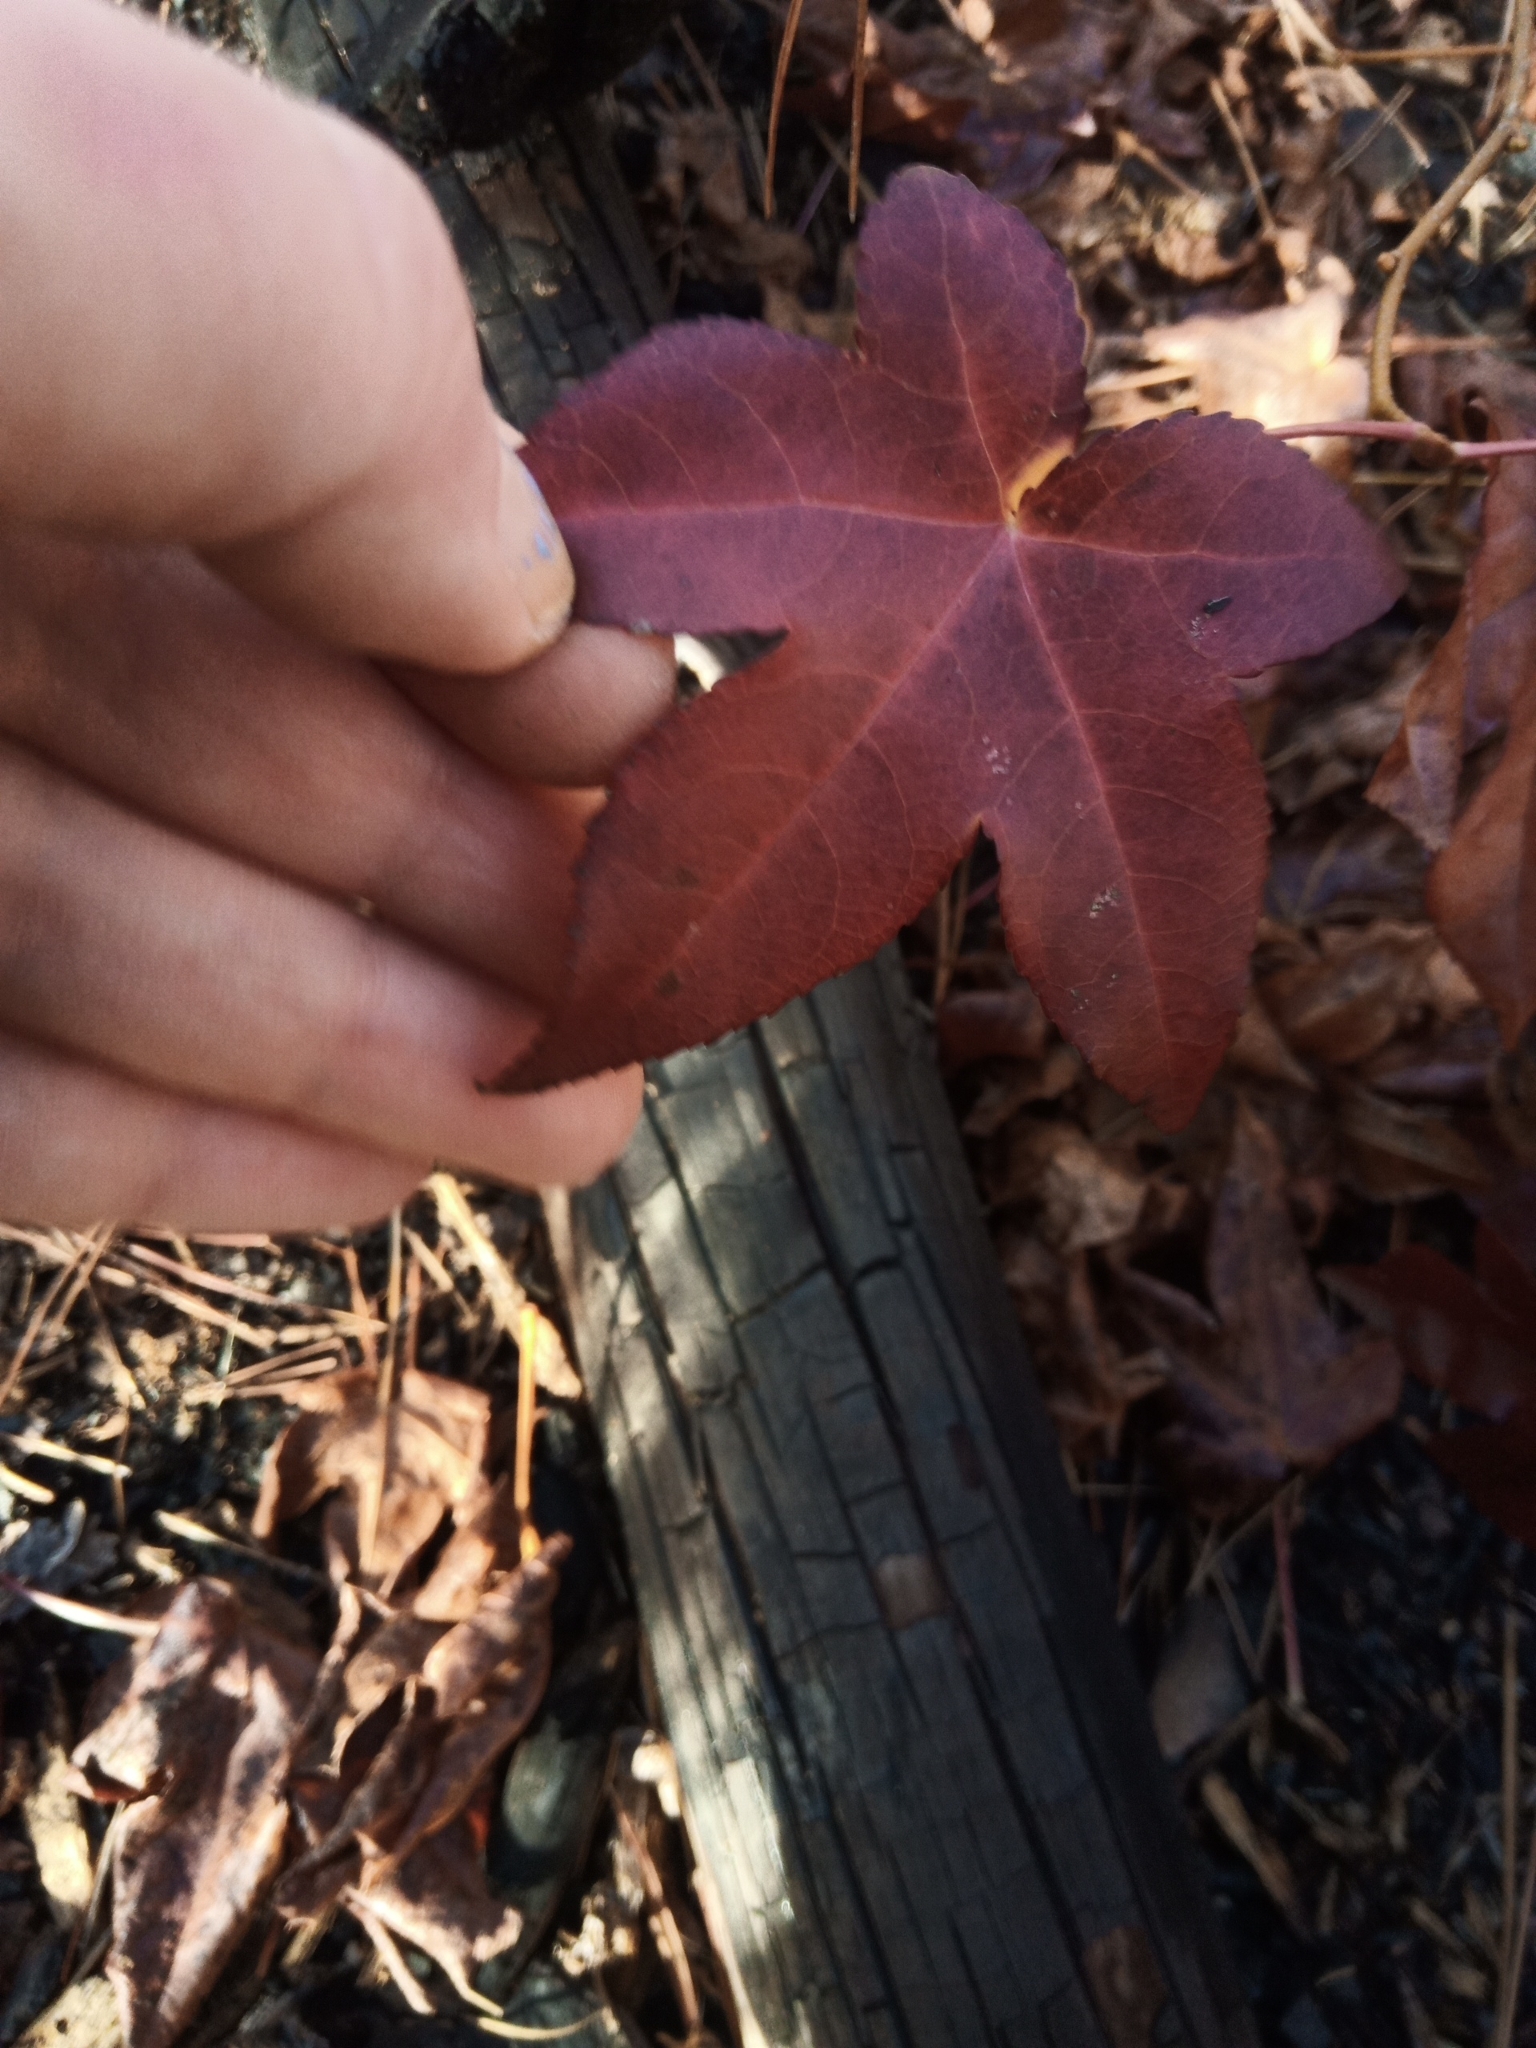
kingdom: Plantae
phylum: Tracheophyta
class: Magnoliopsida
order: Saxifragales
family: Altingiaceae
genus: Liquidambar
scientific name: Liquidambar styraciflua
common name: Sweet gum
